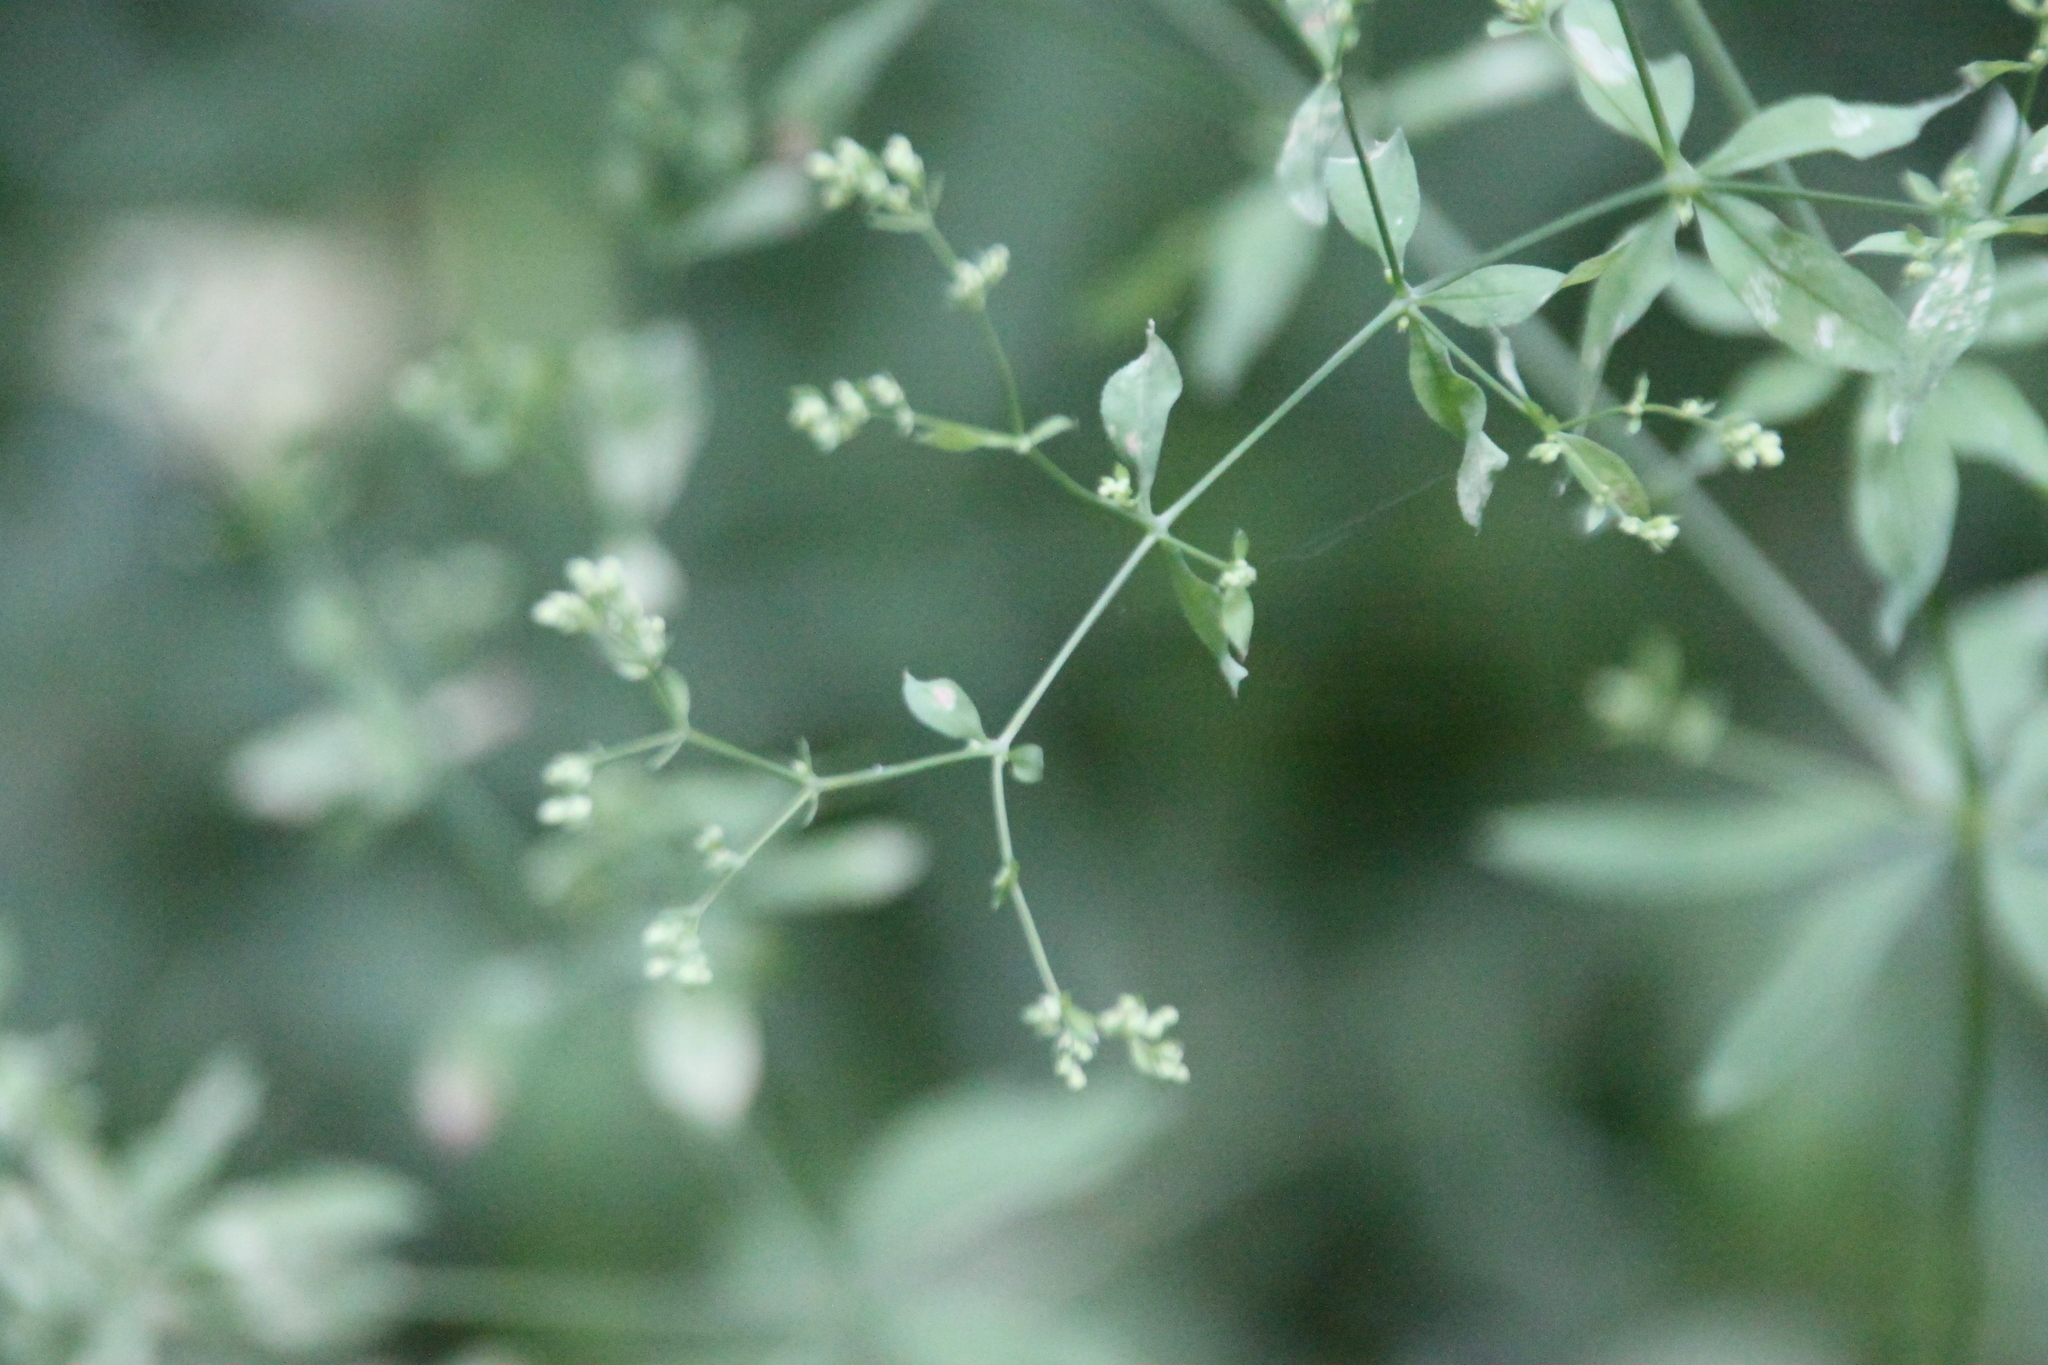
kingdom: Plantae
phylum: Tracheophyta
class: Magnoliopsida
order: Gentianales
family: Rubiaceae
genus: Galium
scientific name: Galium intermedium
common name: Bedstraw
